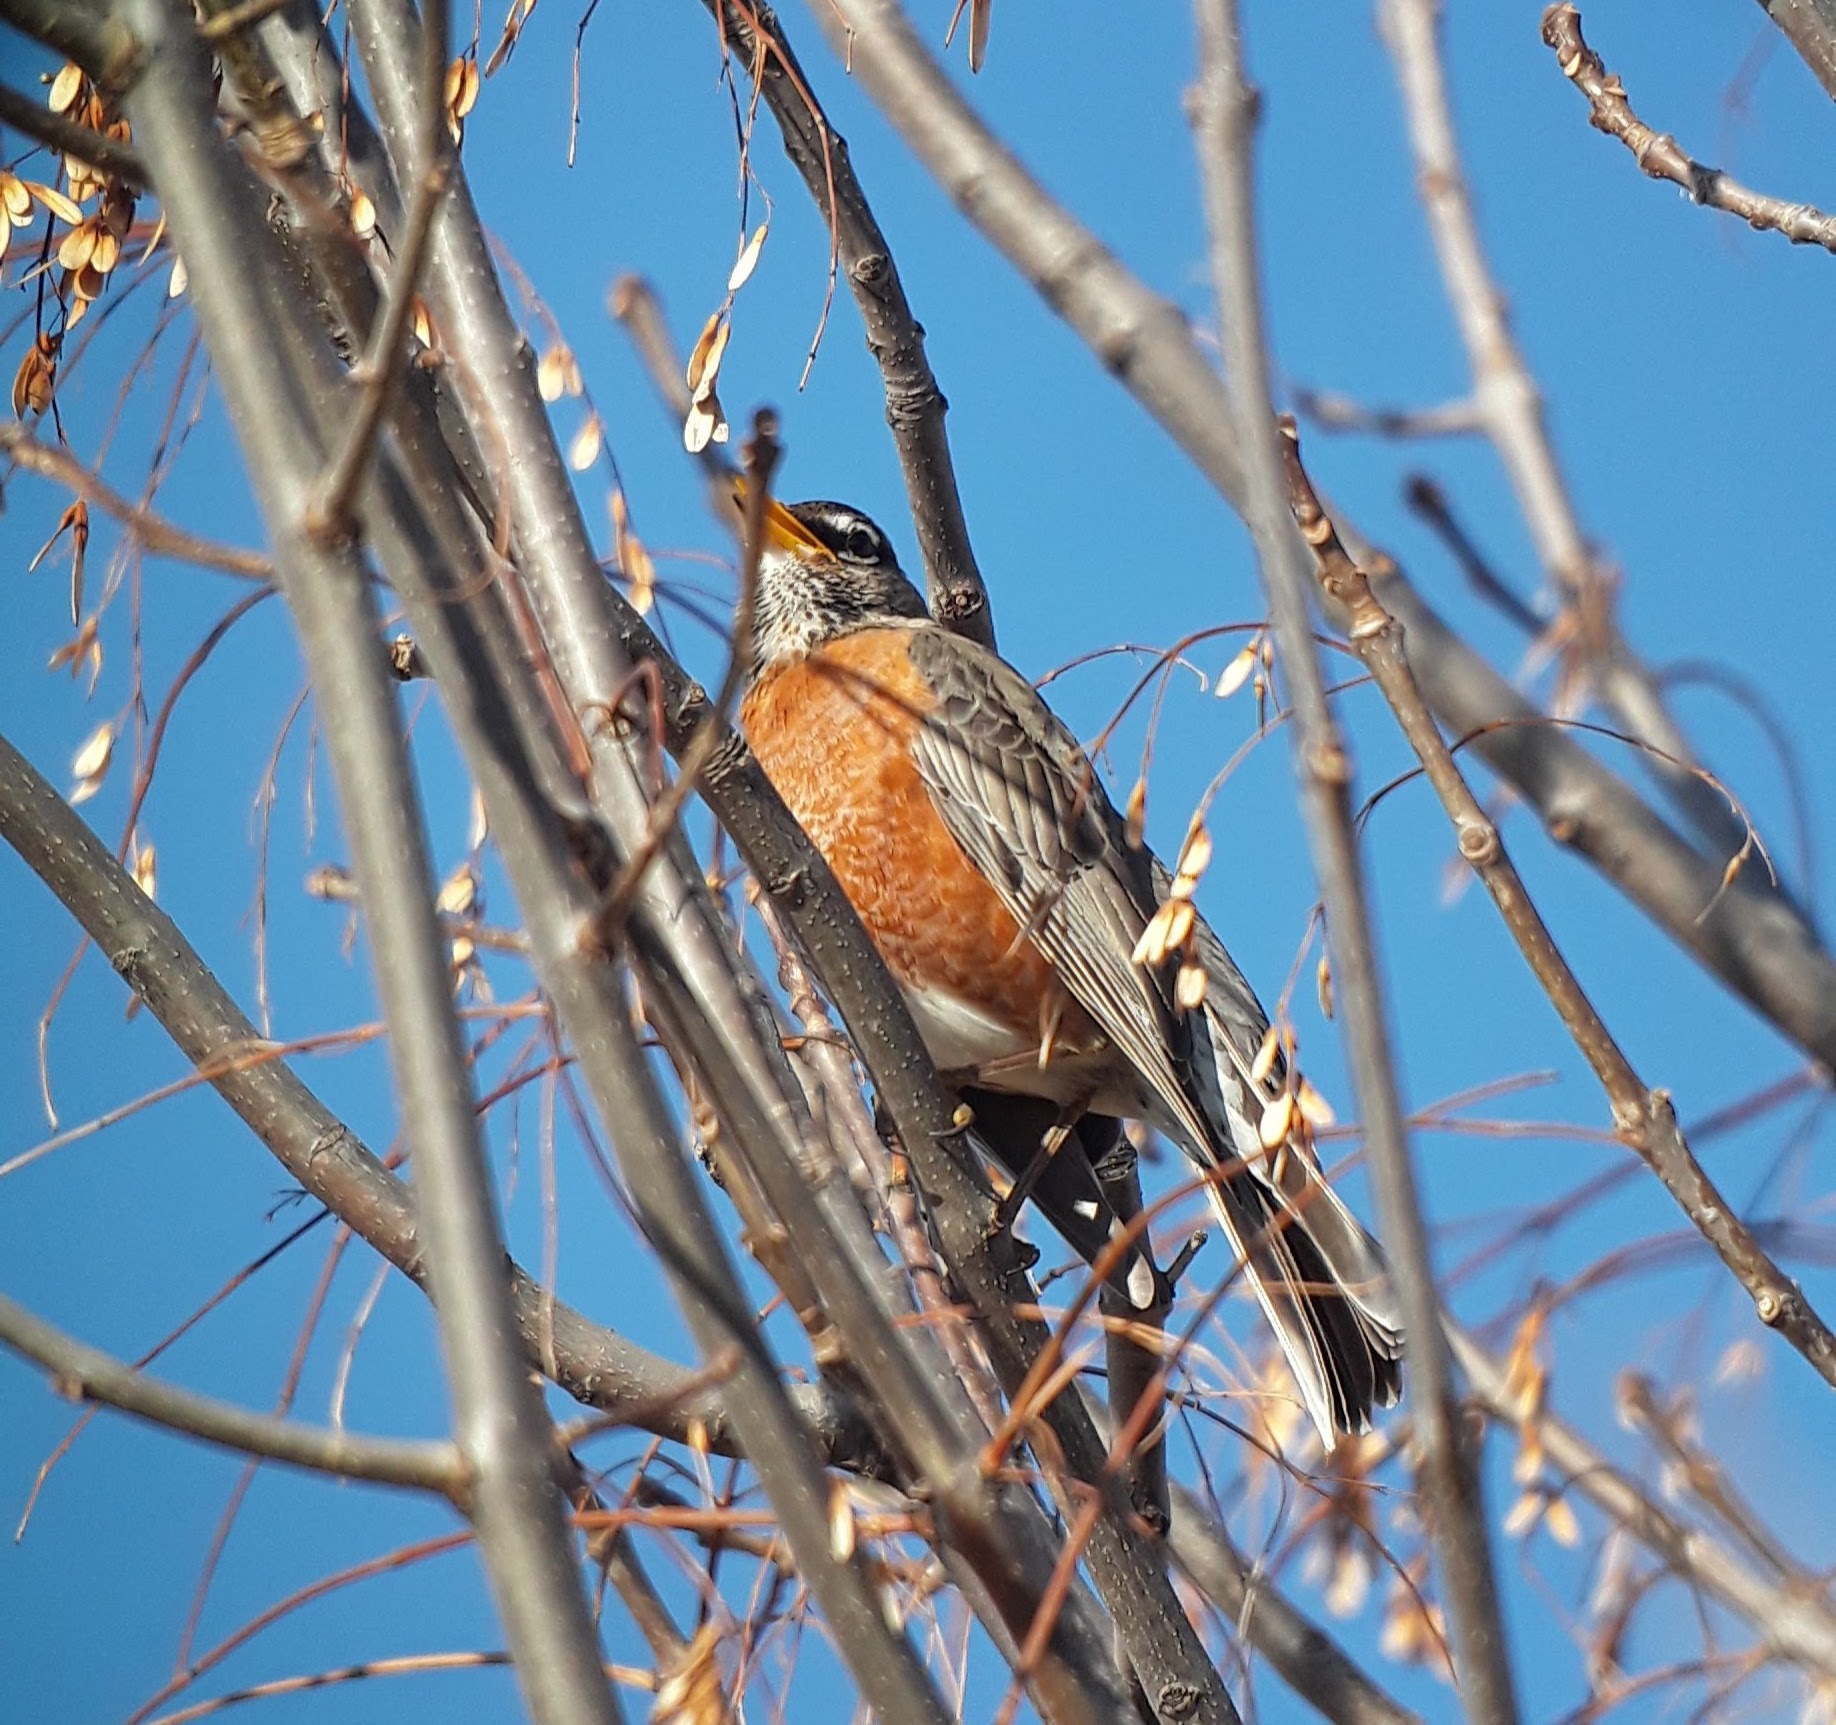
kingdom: Animalia
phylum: Chordata
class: Aves
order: Passeriformes
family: Turdidae
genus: Turdus
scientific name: Turdus migratorius
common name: American robin
